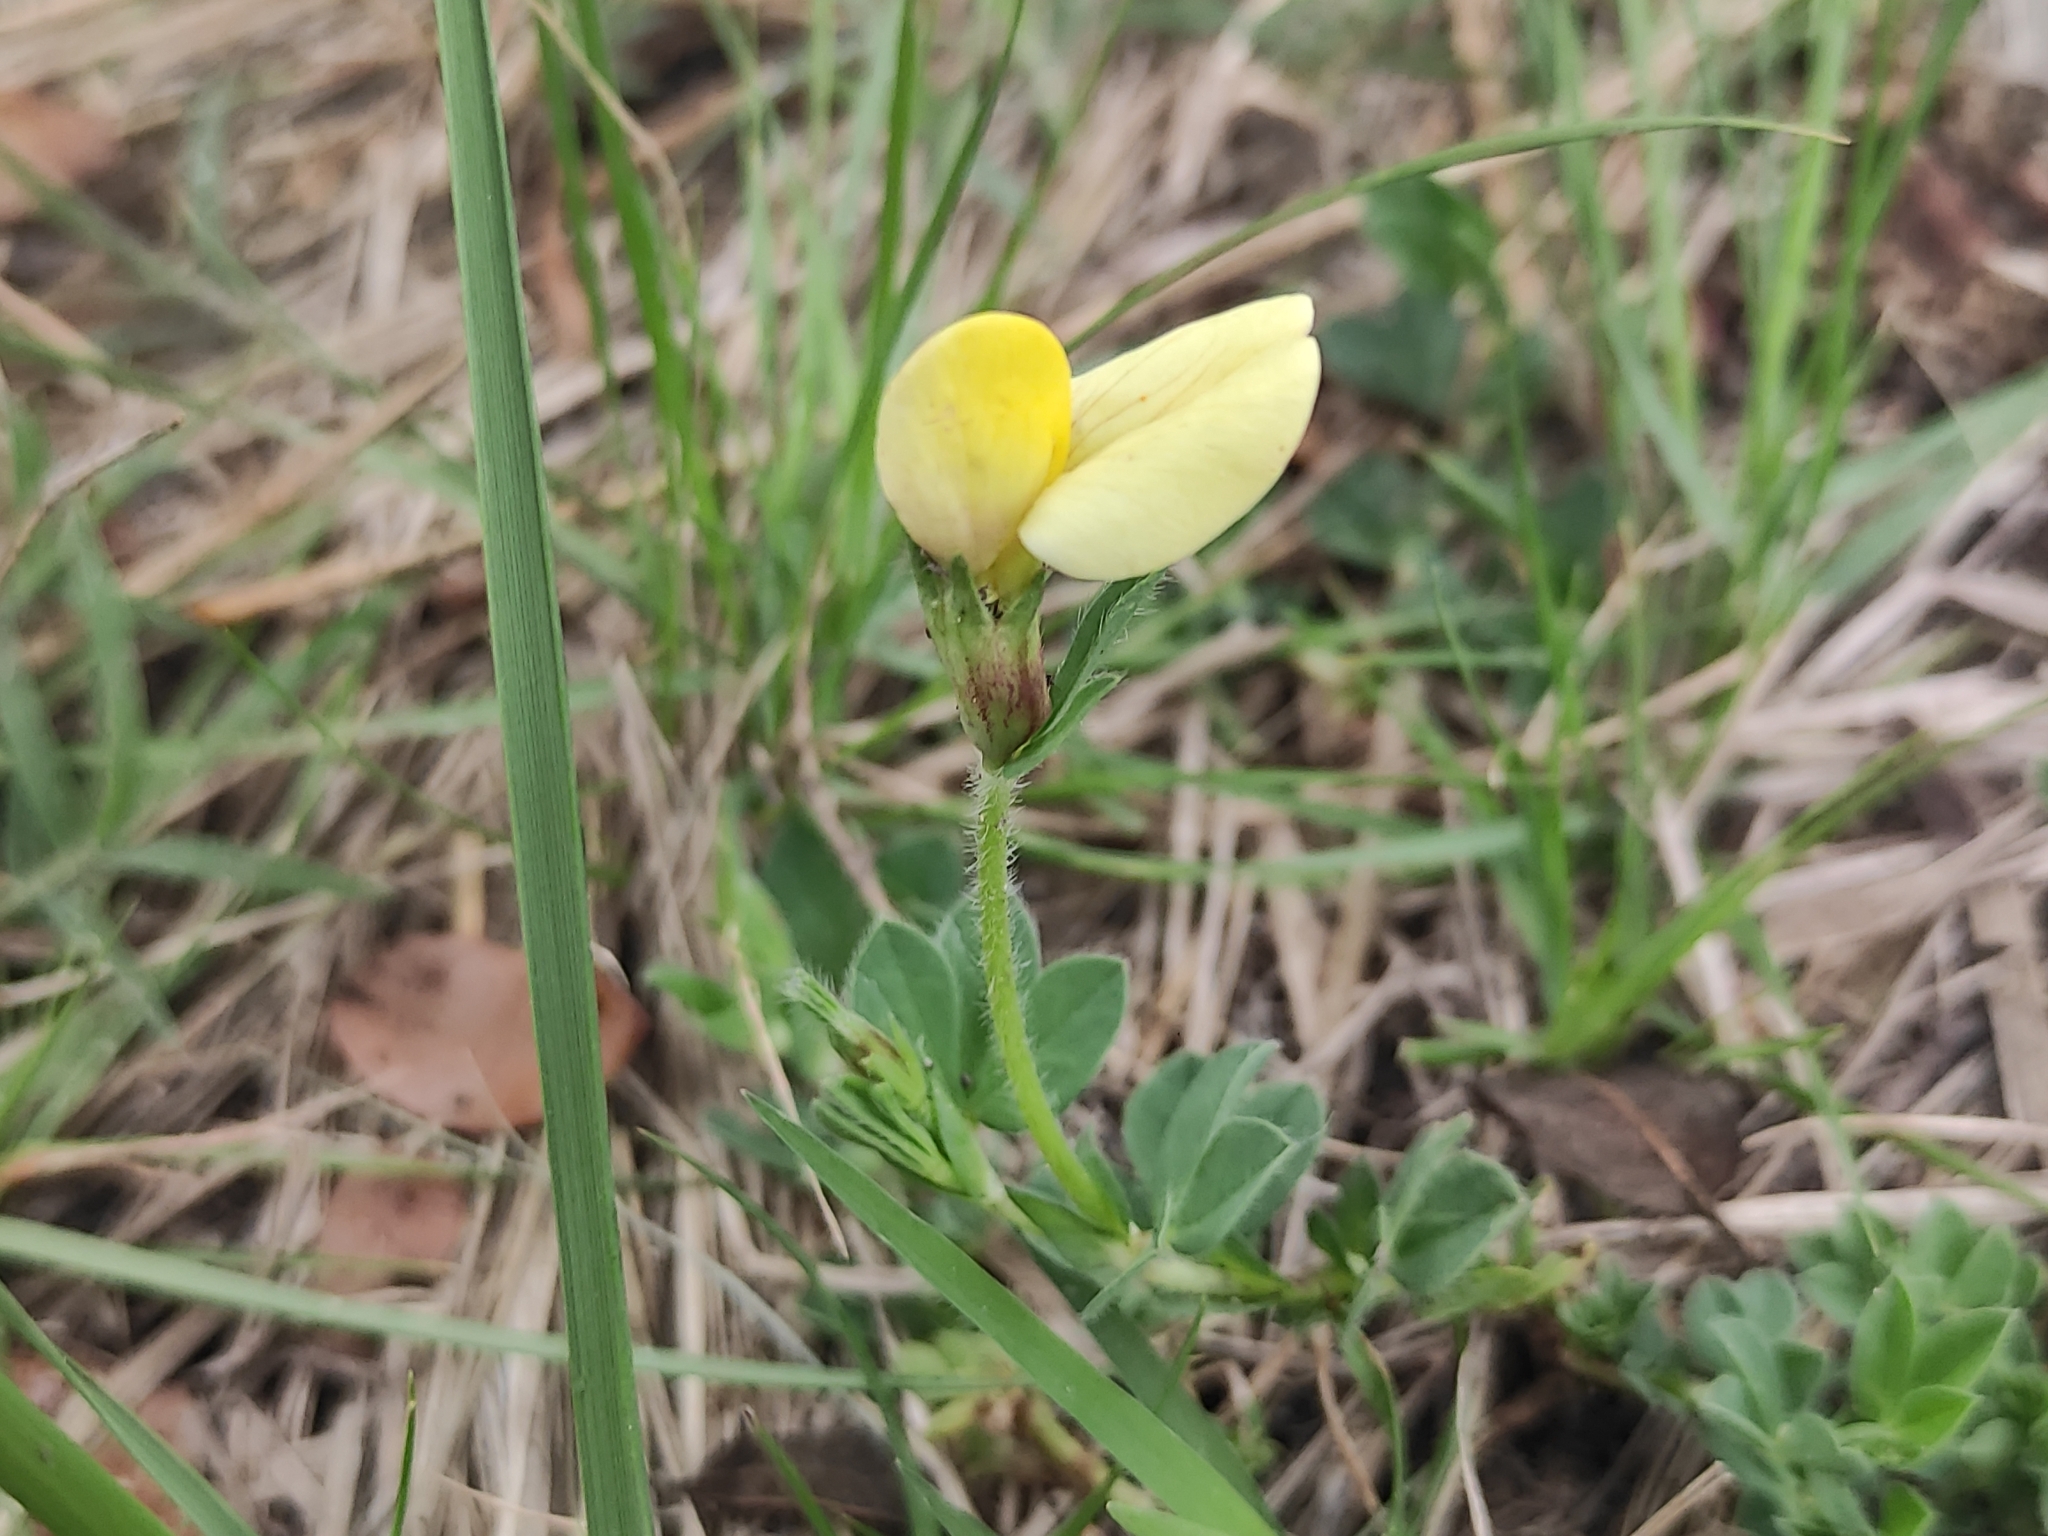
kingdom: Plantae
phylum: Tracheophyta
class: Magnoliopsida
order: Fabales
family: Fabaceae
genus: Lotus
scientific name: Lotus maritimus
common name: Dragon's-teeth
